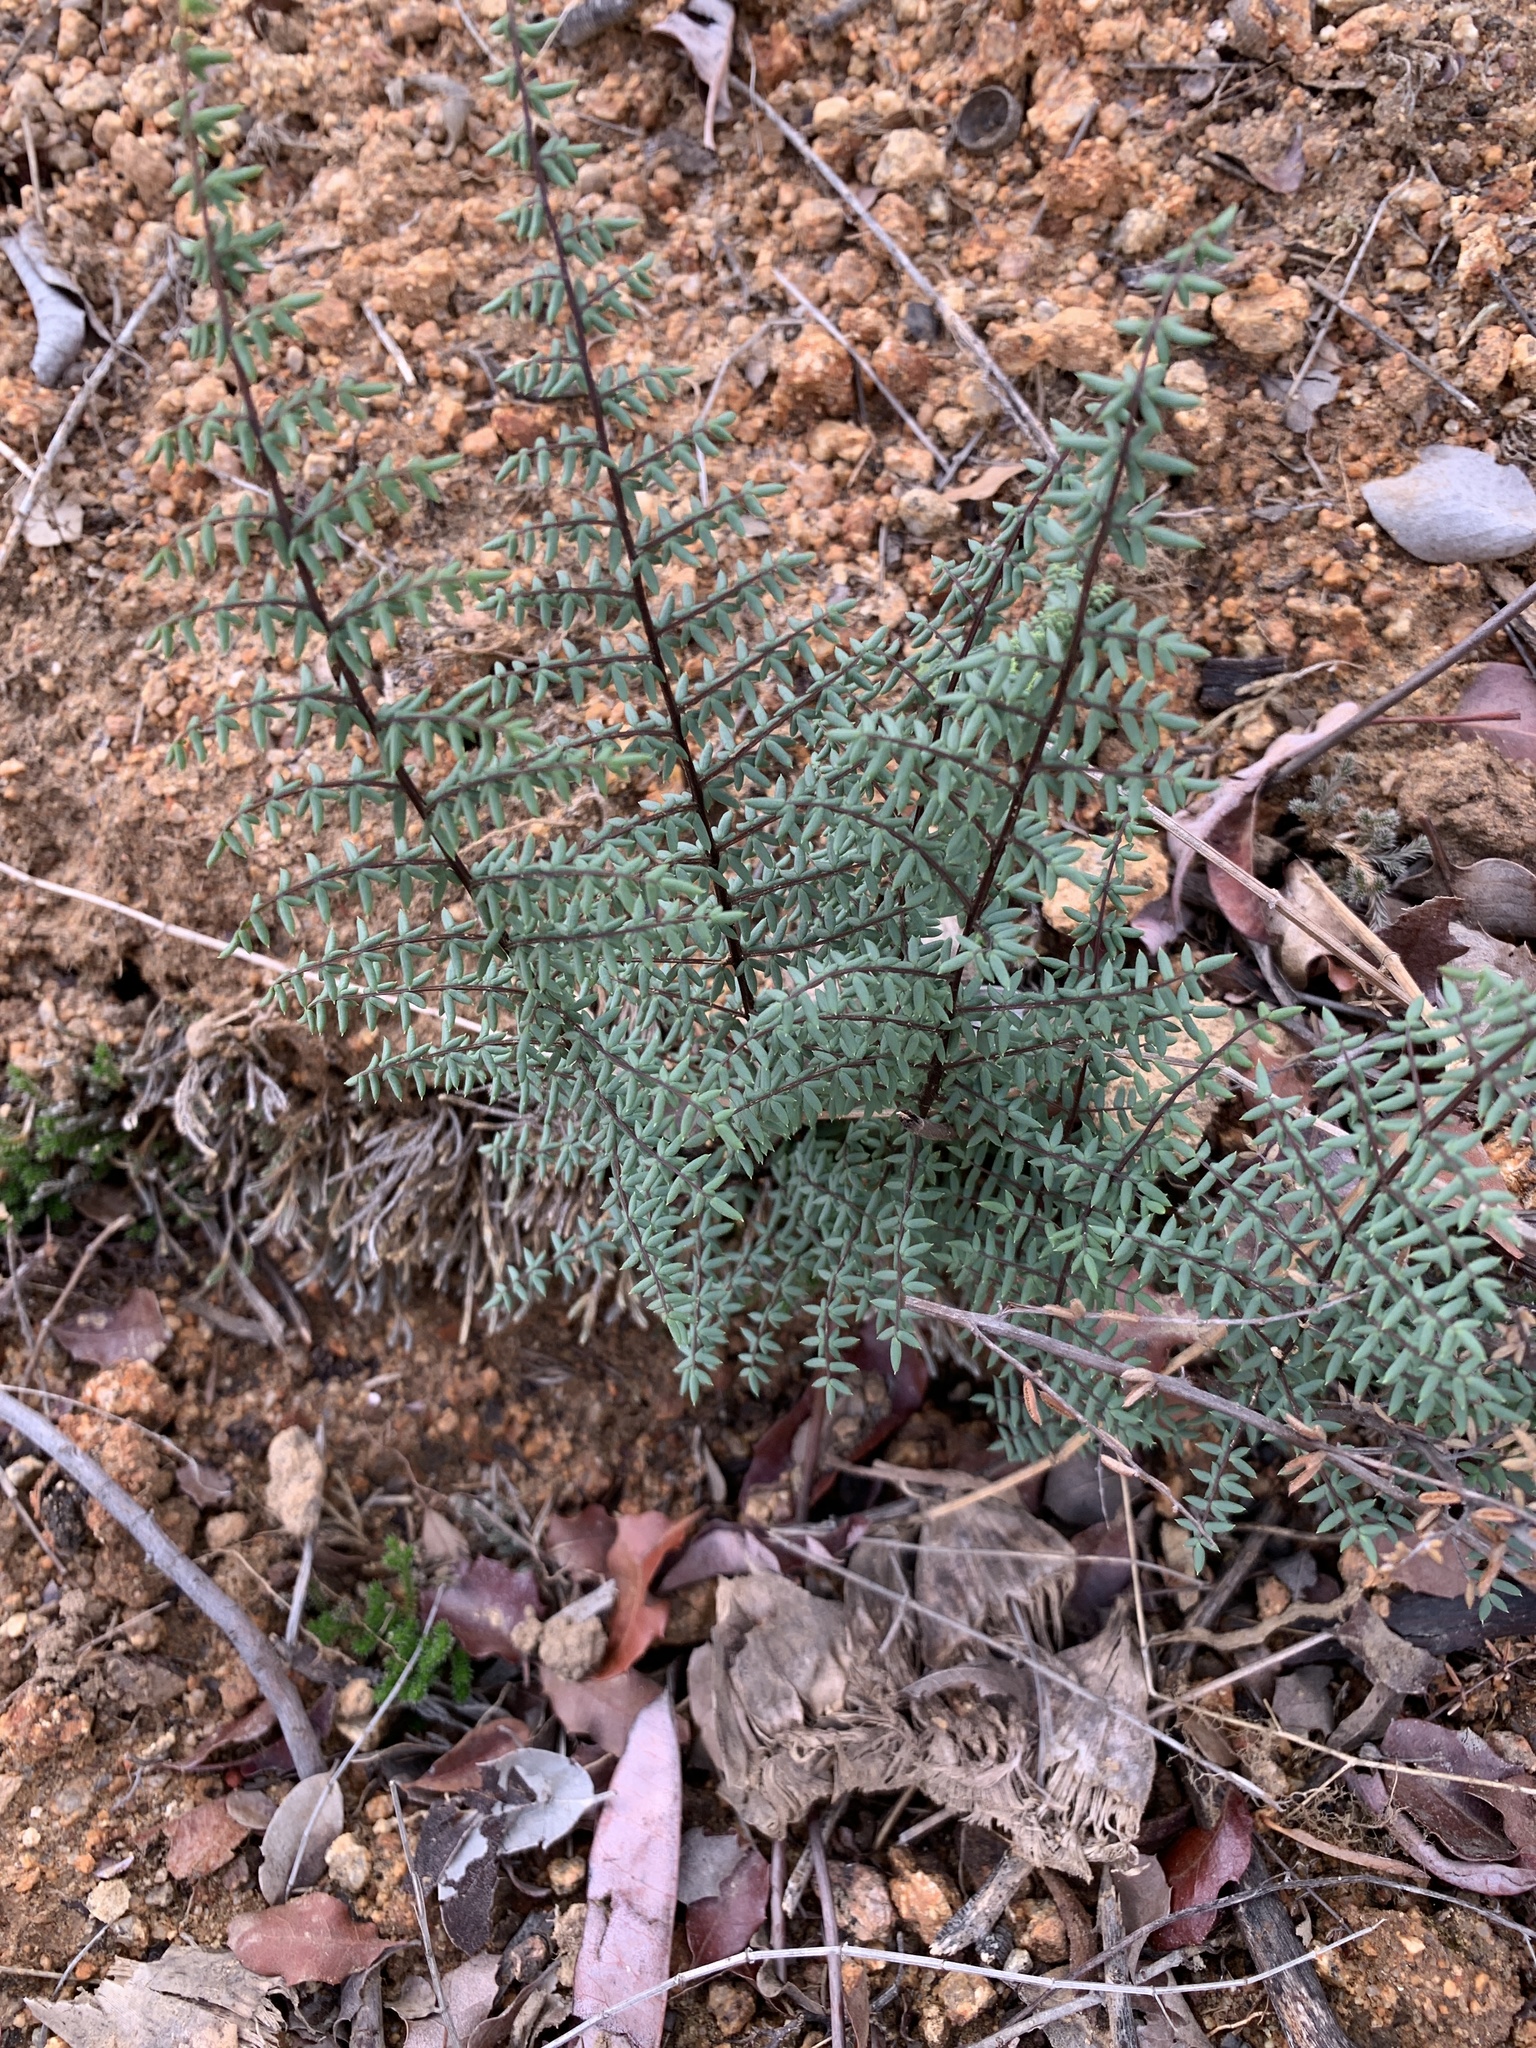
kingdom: Plantae
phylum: Tracheophyta
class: Polypodiopsida
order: Polypodiales
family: Pteridaceae
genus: Pellaea
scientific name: Pellaea mucronata
